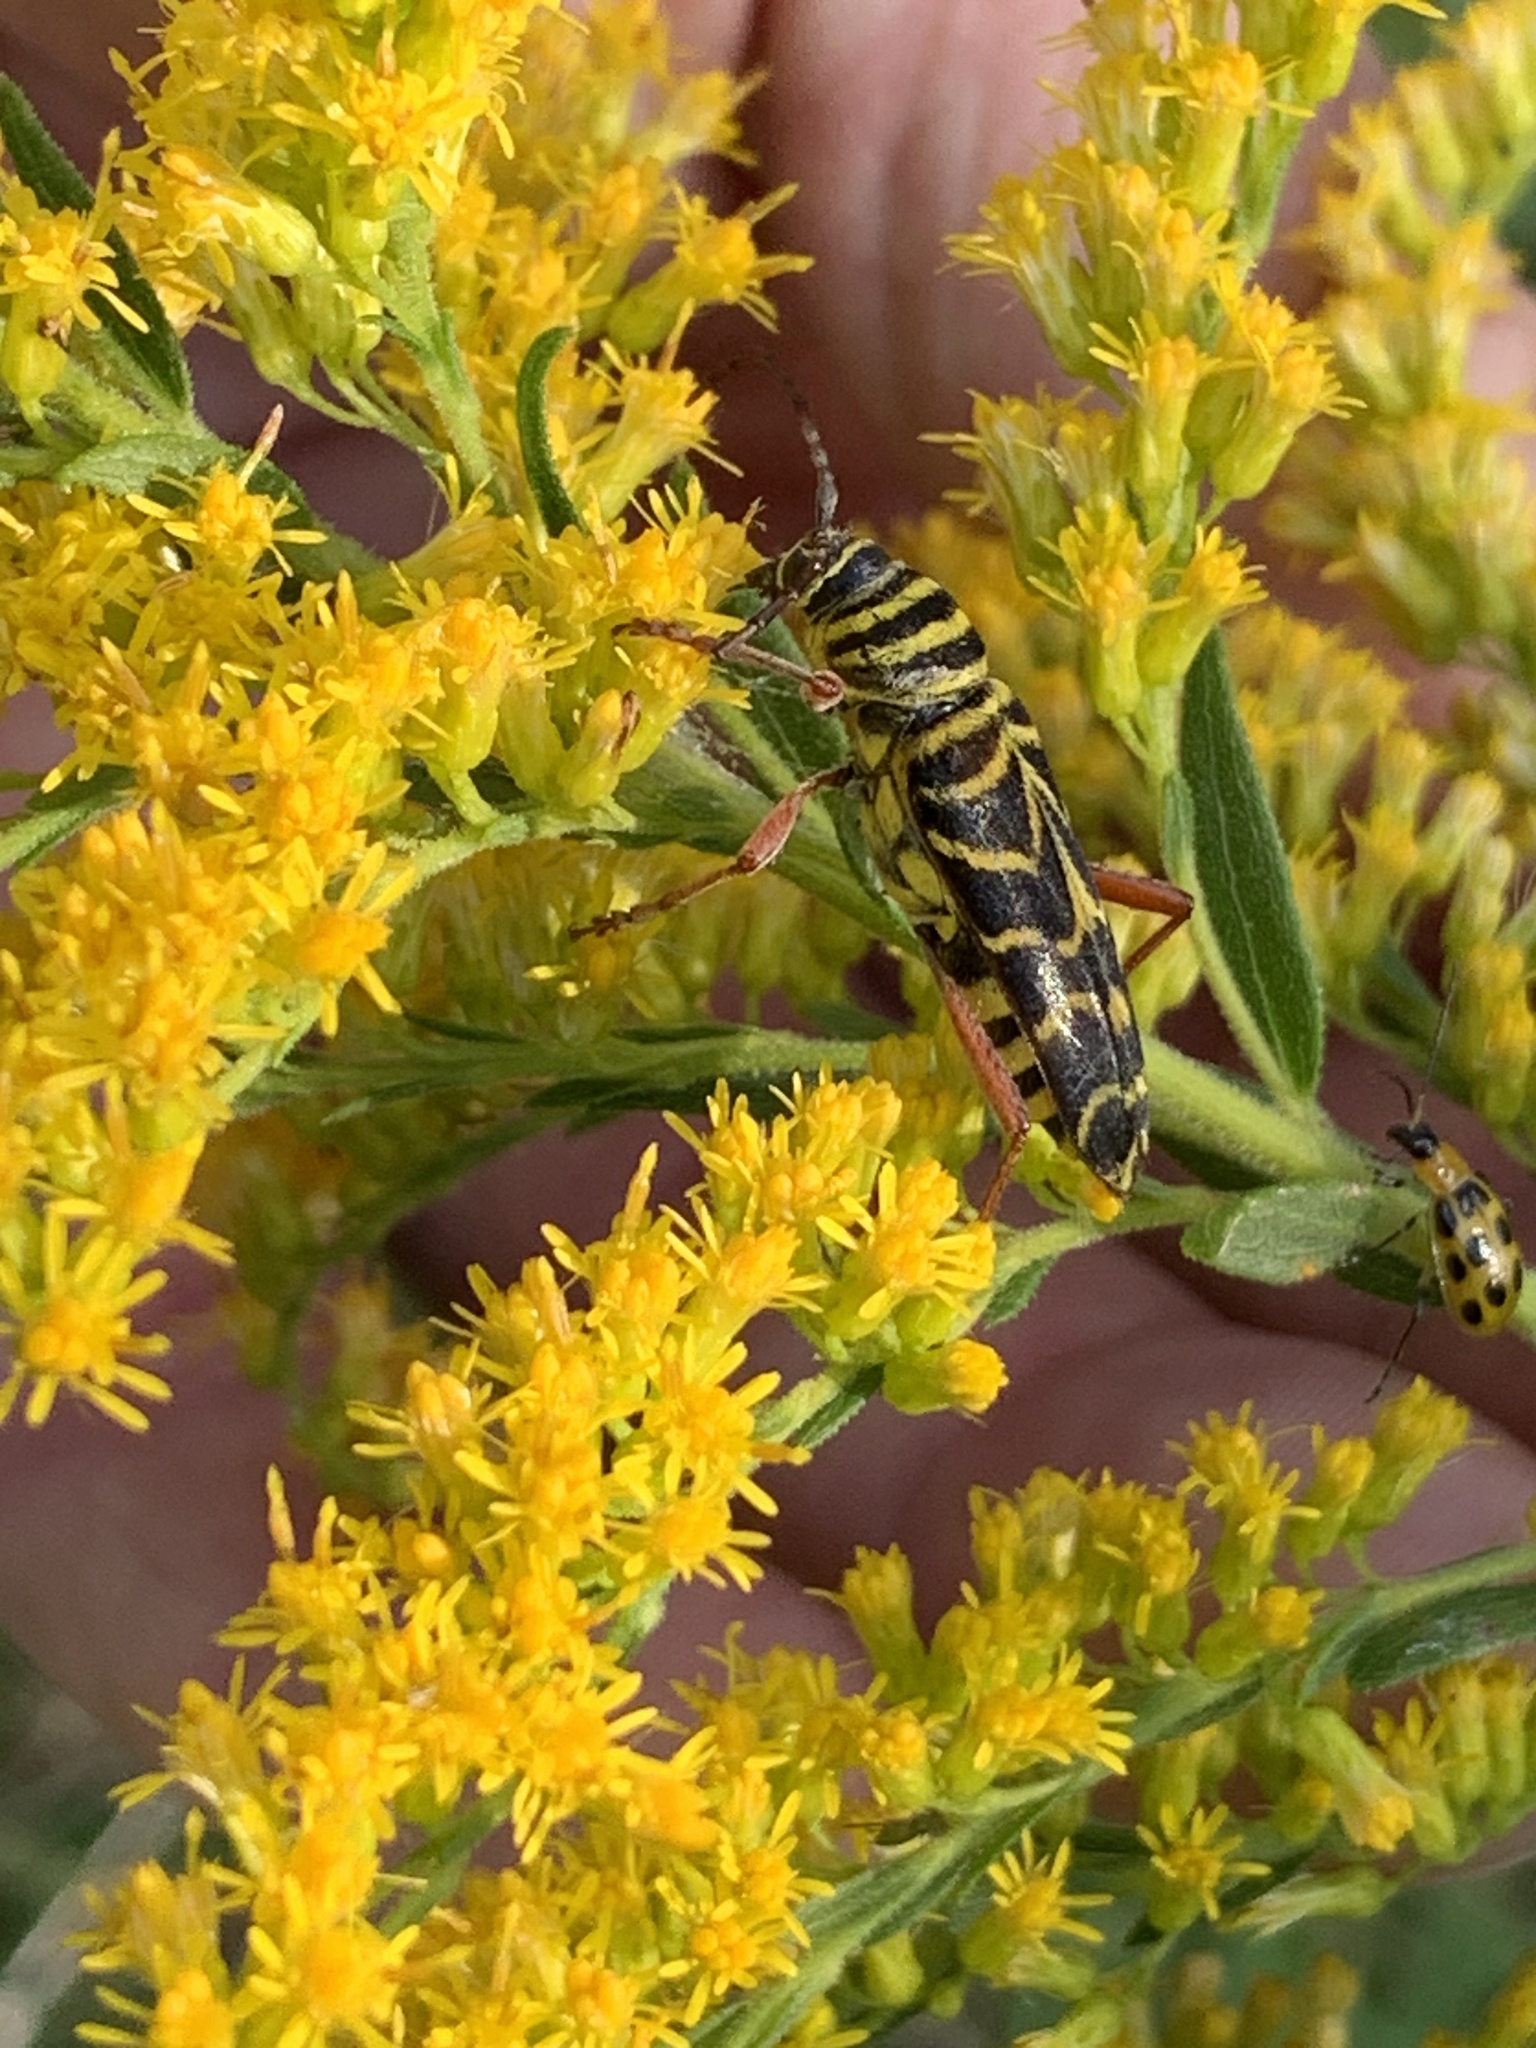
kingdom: Animalia
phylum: Arthropoda
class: Insecta
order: Coleoptera
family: Cerambycidae
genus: Megacyllene
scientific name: Megacyllene robiniae
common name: Locust borer
